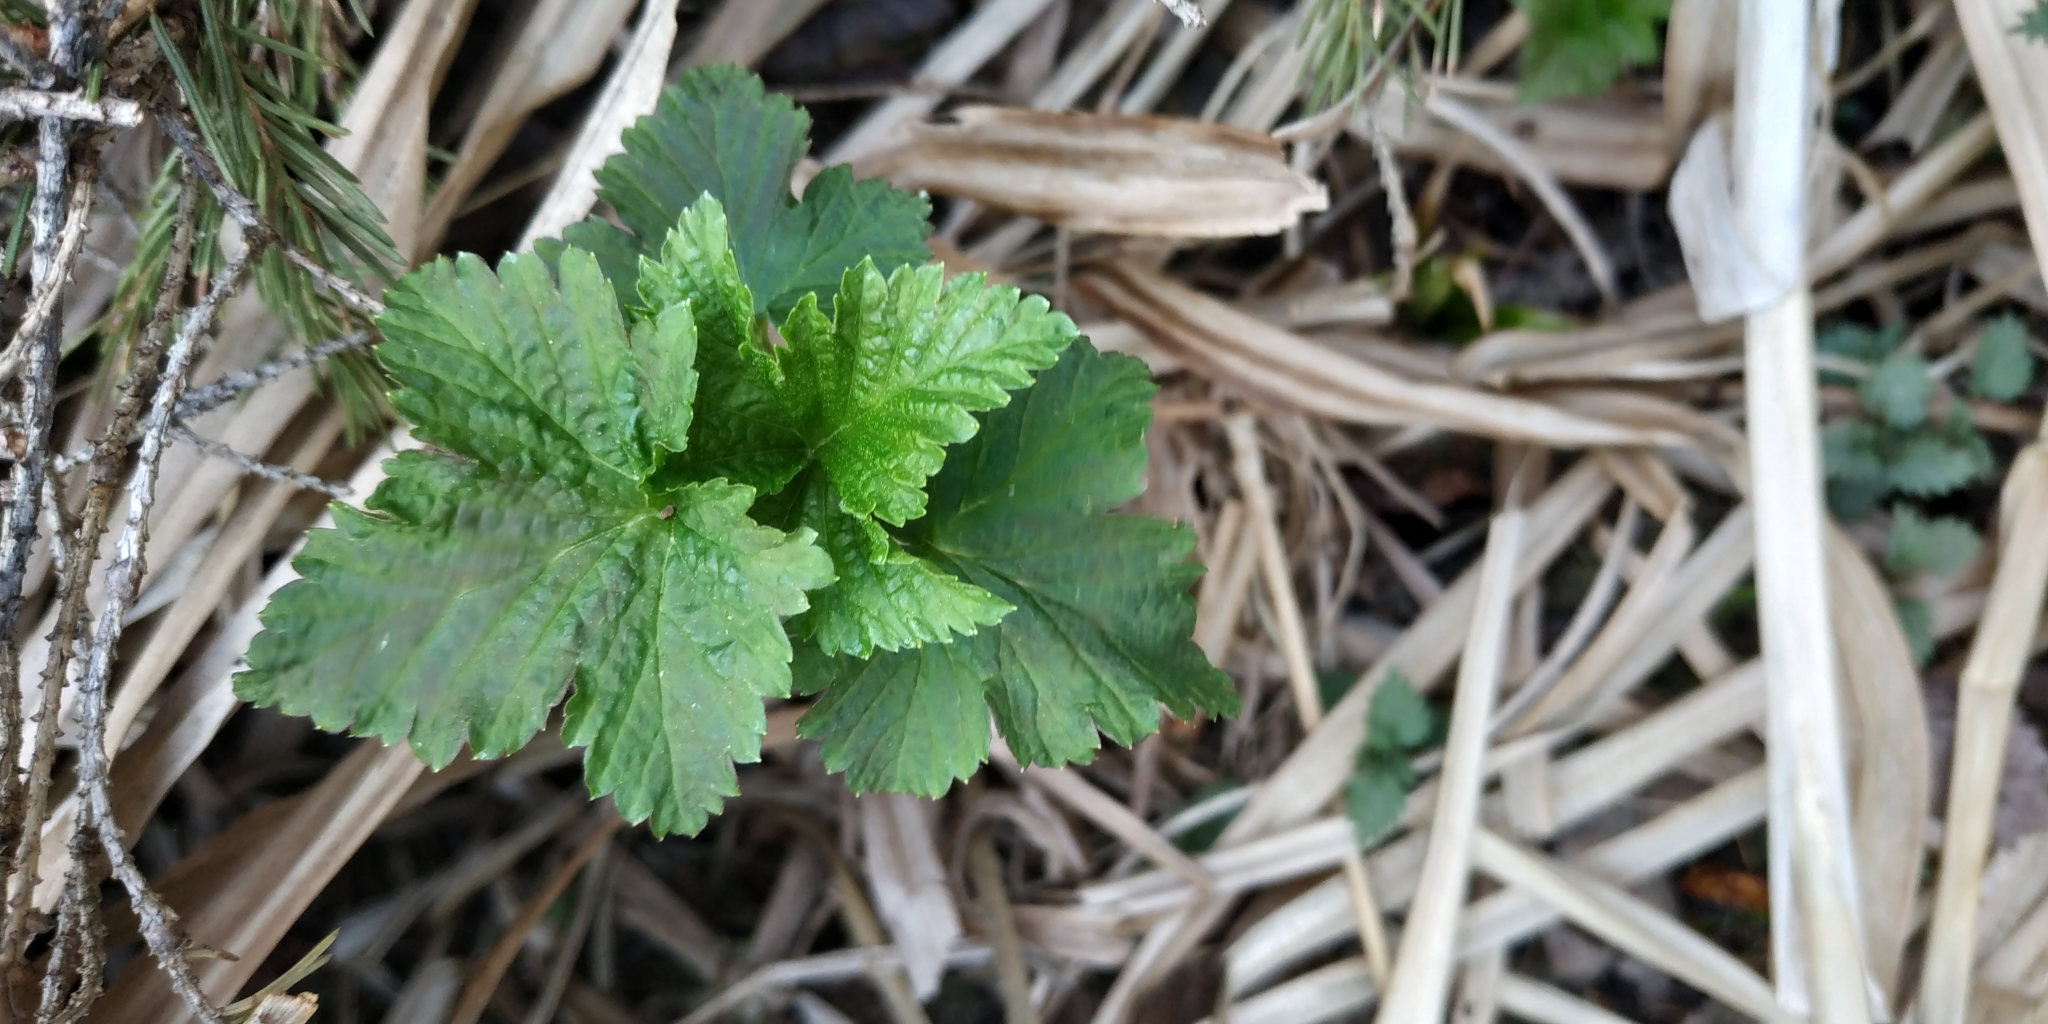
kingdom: Plantae
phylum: Tracheophyta
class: Magnoliopsida
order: Saxifragales
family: Grossulariaceae
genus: Ribes
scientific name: Ribes nigrum
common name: Black currant
